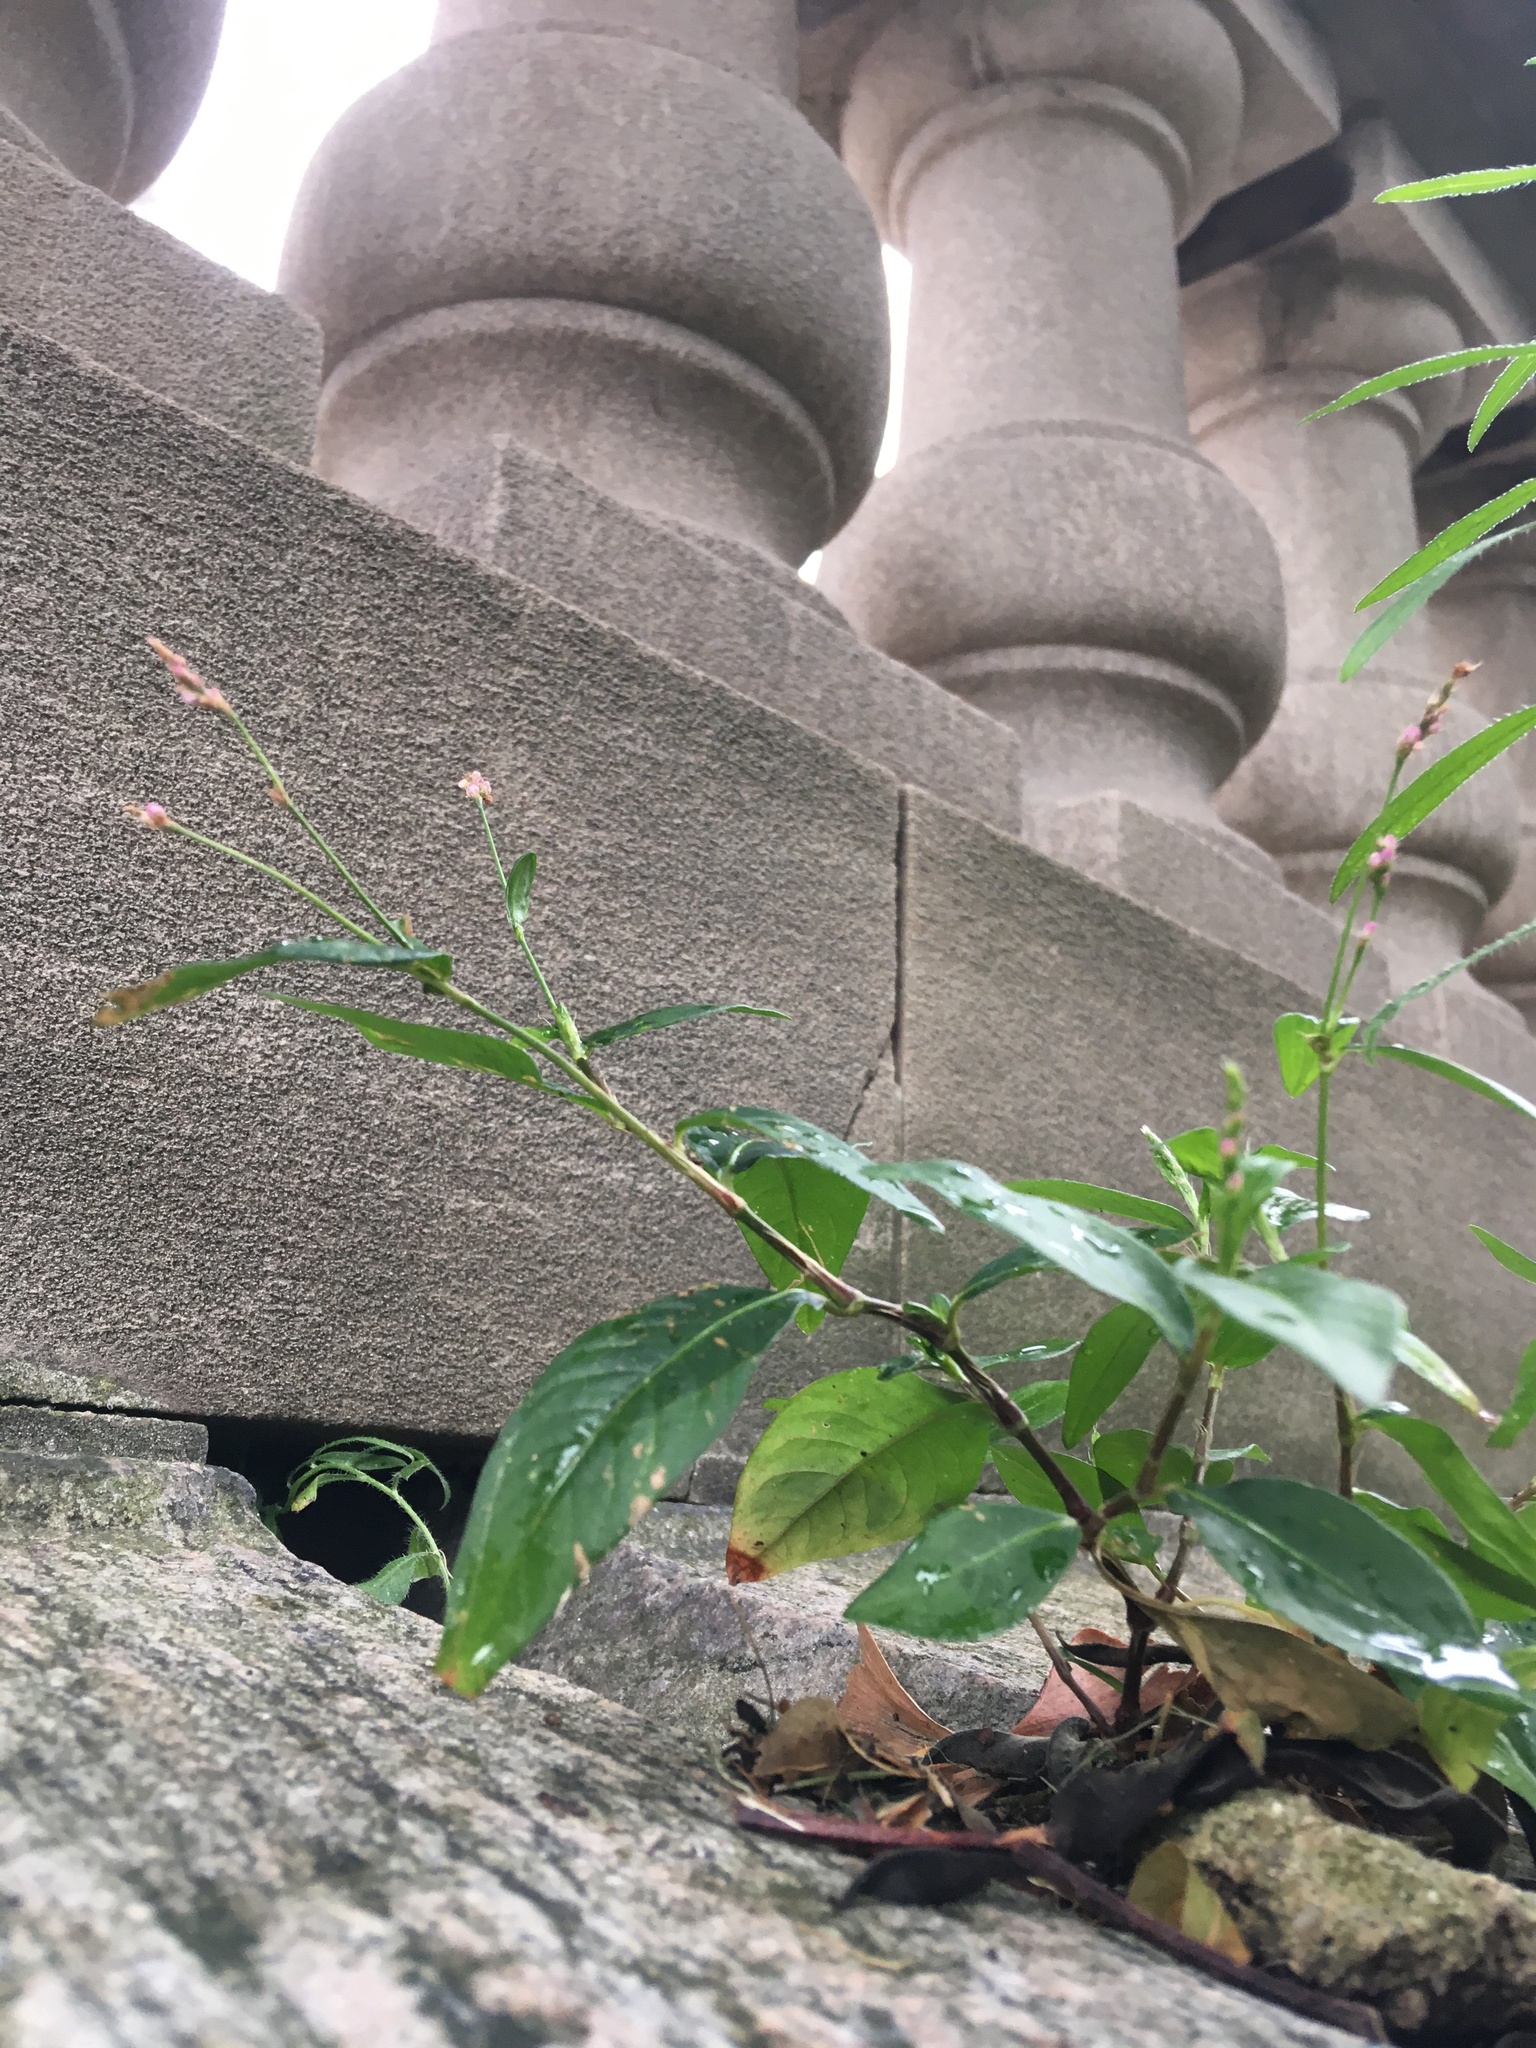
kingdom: Plantae
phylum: Tracheophyta
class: Magnoliopsida
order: Caryophyllales
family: Polygonaceae
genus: Persicaria
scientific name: Persicaria longiseta
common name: Bristly lady's-thumb
